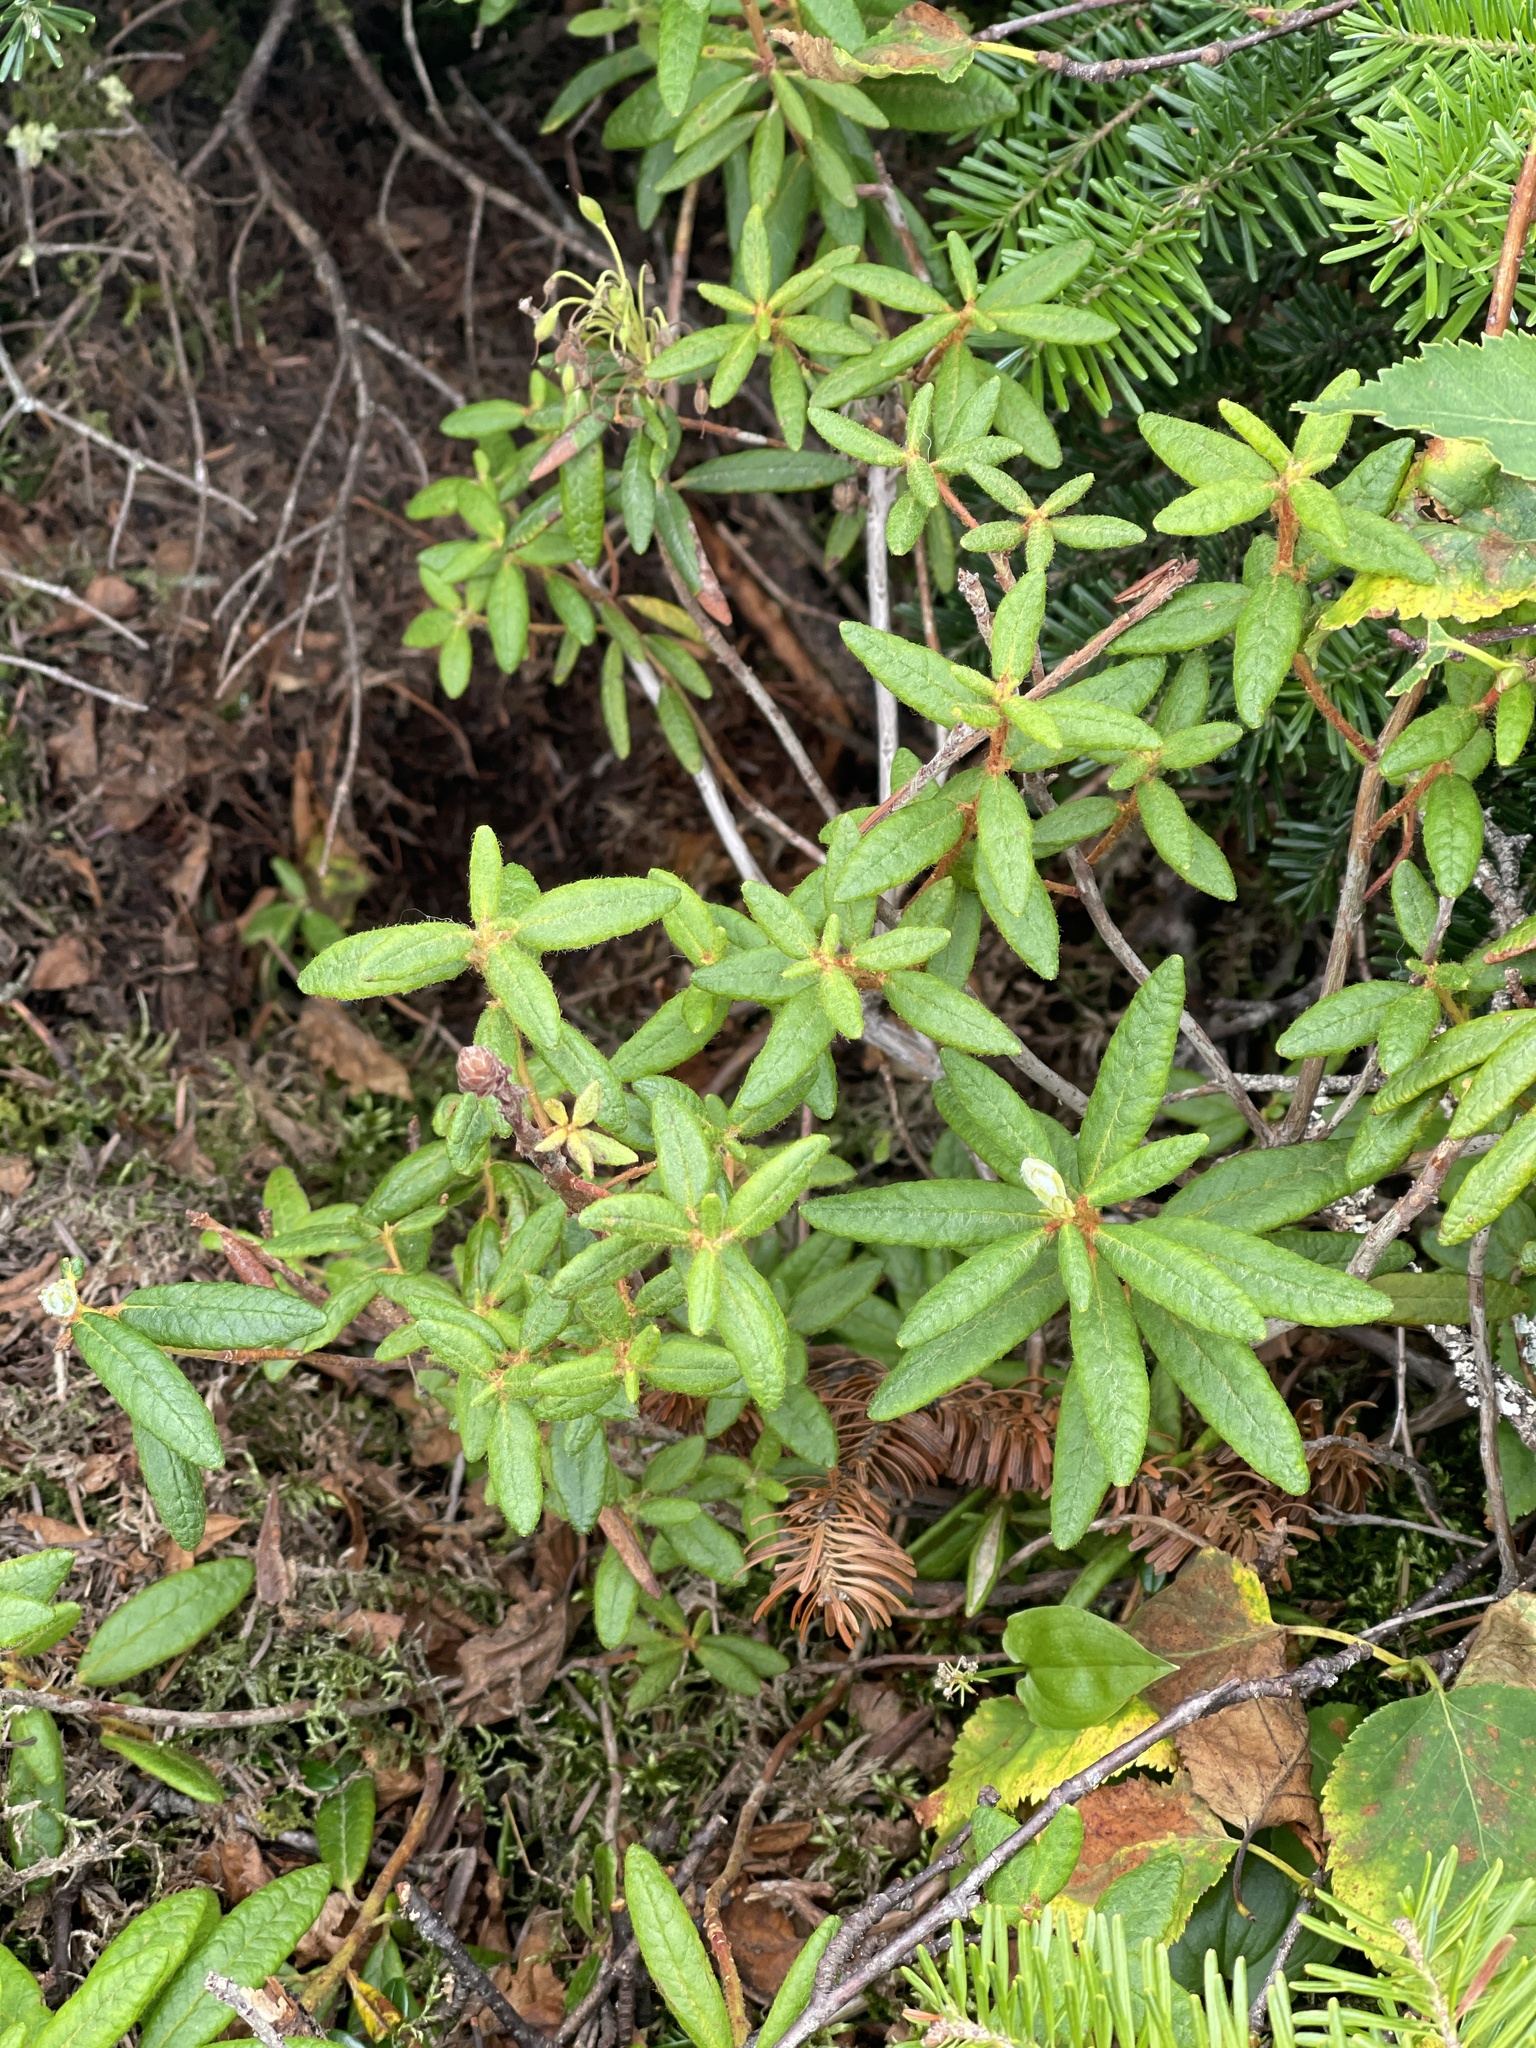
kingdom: Plantae
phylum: Tracheophyta
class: Magnoliopsida
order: Ericales
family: Ericaceae
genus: Rhododendron
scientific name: Rhododendron groenlandicum
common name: Bog labrador tea
